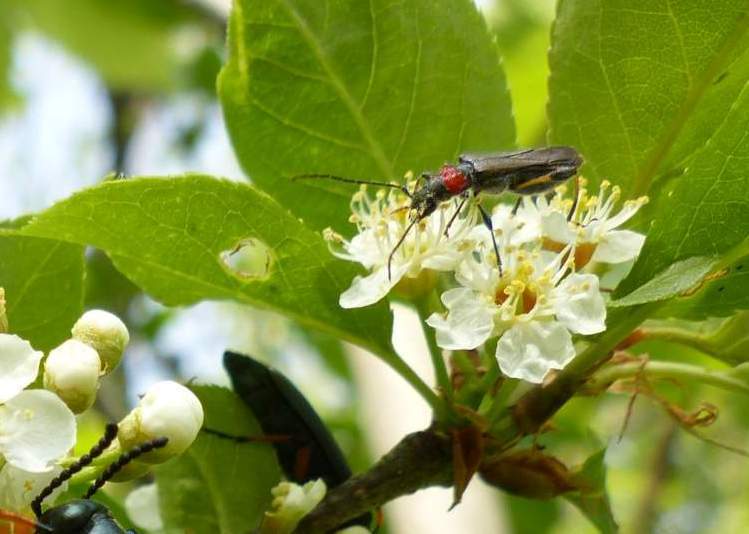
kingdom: Animalia
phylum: Arthropoda
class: Insecta
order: Coleoptera
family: Cerambycidae
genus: Callimoxys
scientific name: Callimoxys sanguinicollis
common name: Blood-necked longhorn beetle
